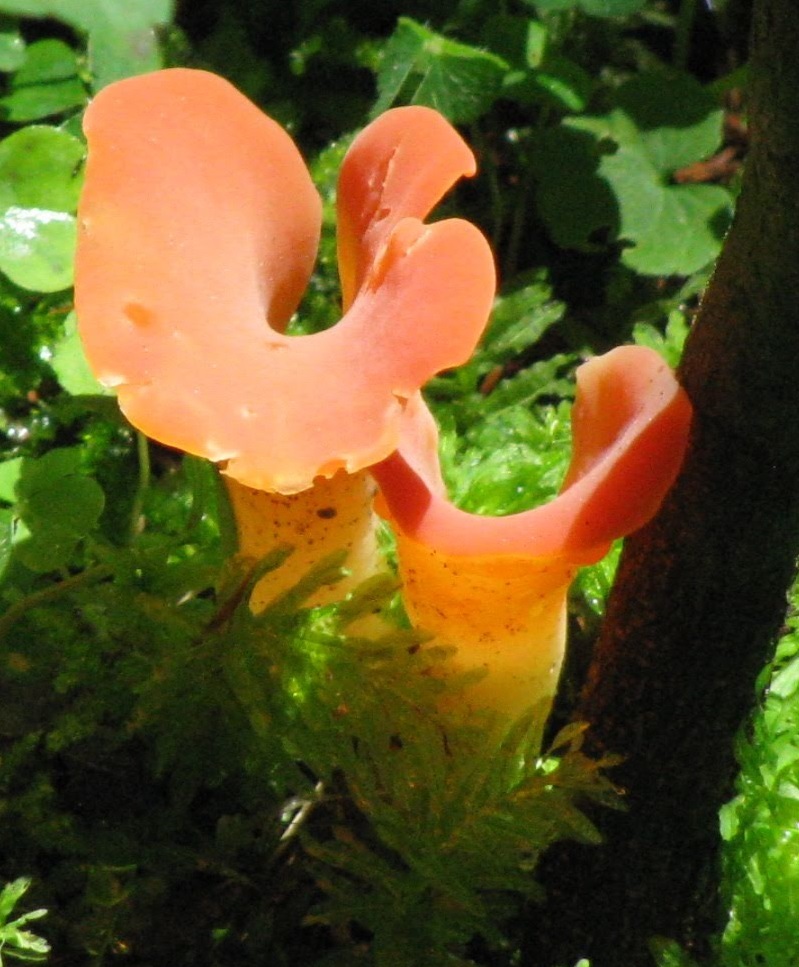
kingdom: Fungi
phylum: Basidiomycota
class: Agaricomycetes
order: Auriculariales
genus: Guepinia
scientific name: Guepinia helvelloides
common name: Salmon salad
